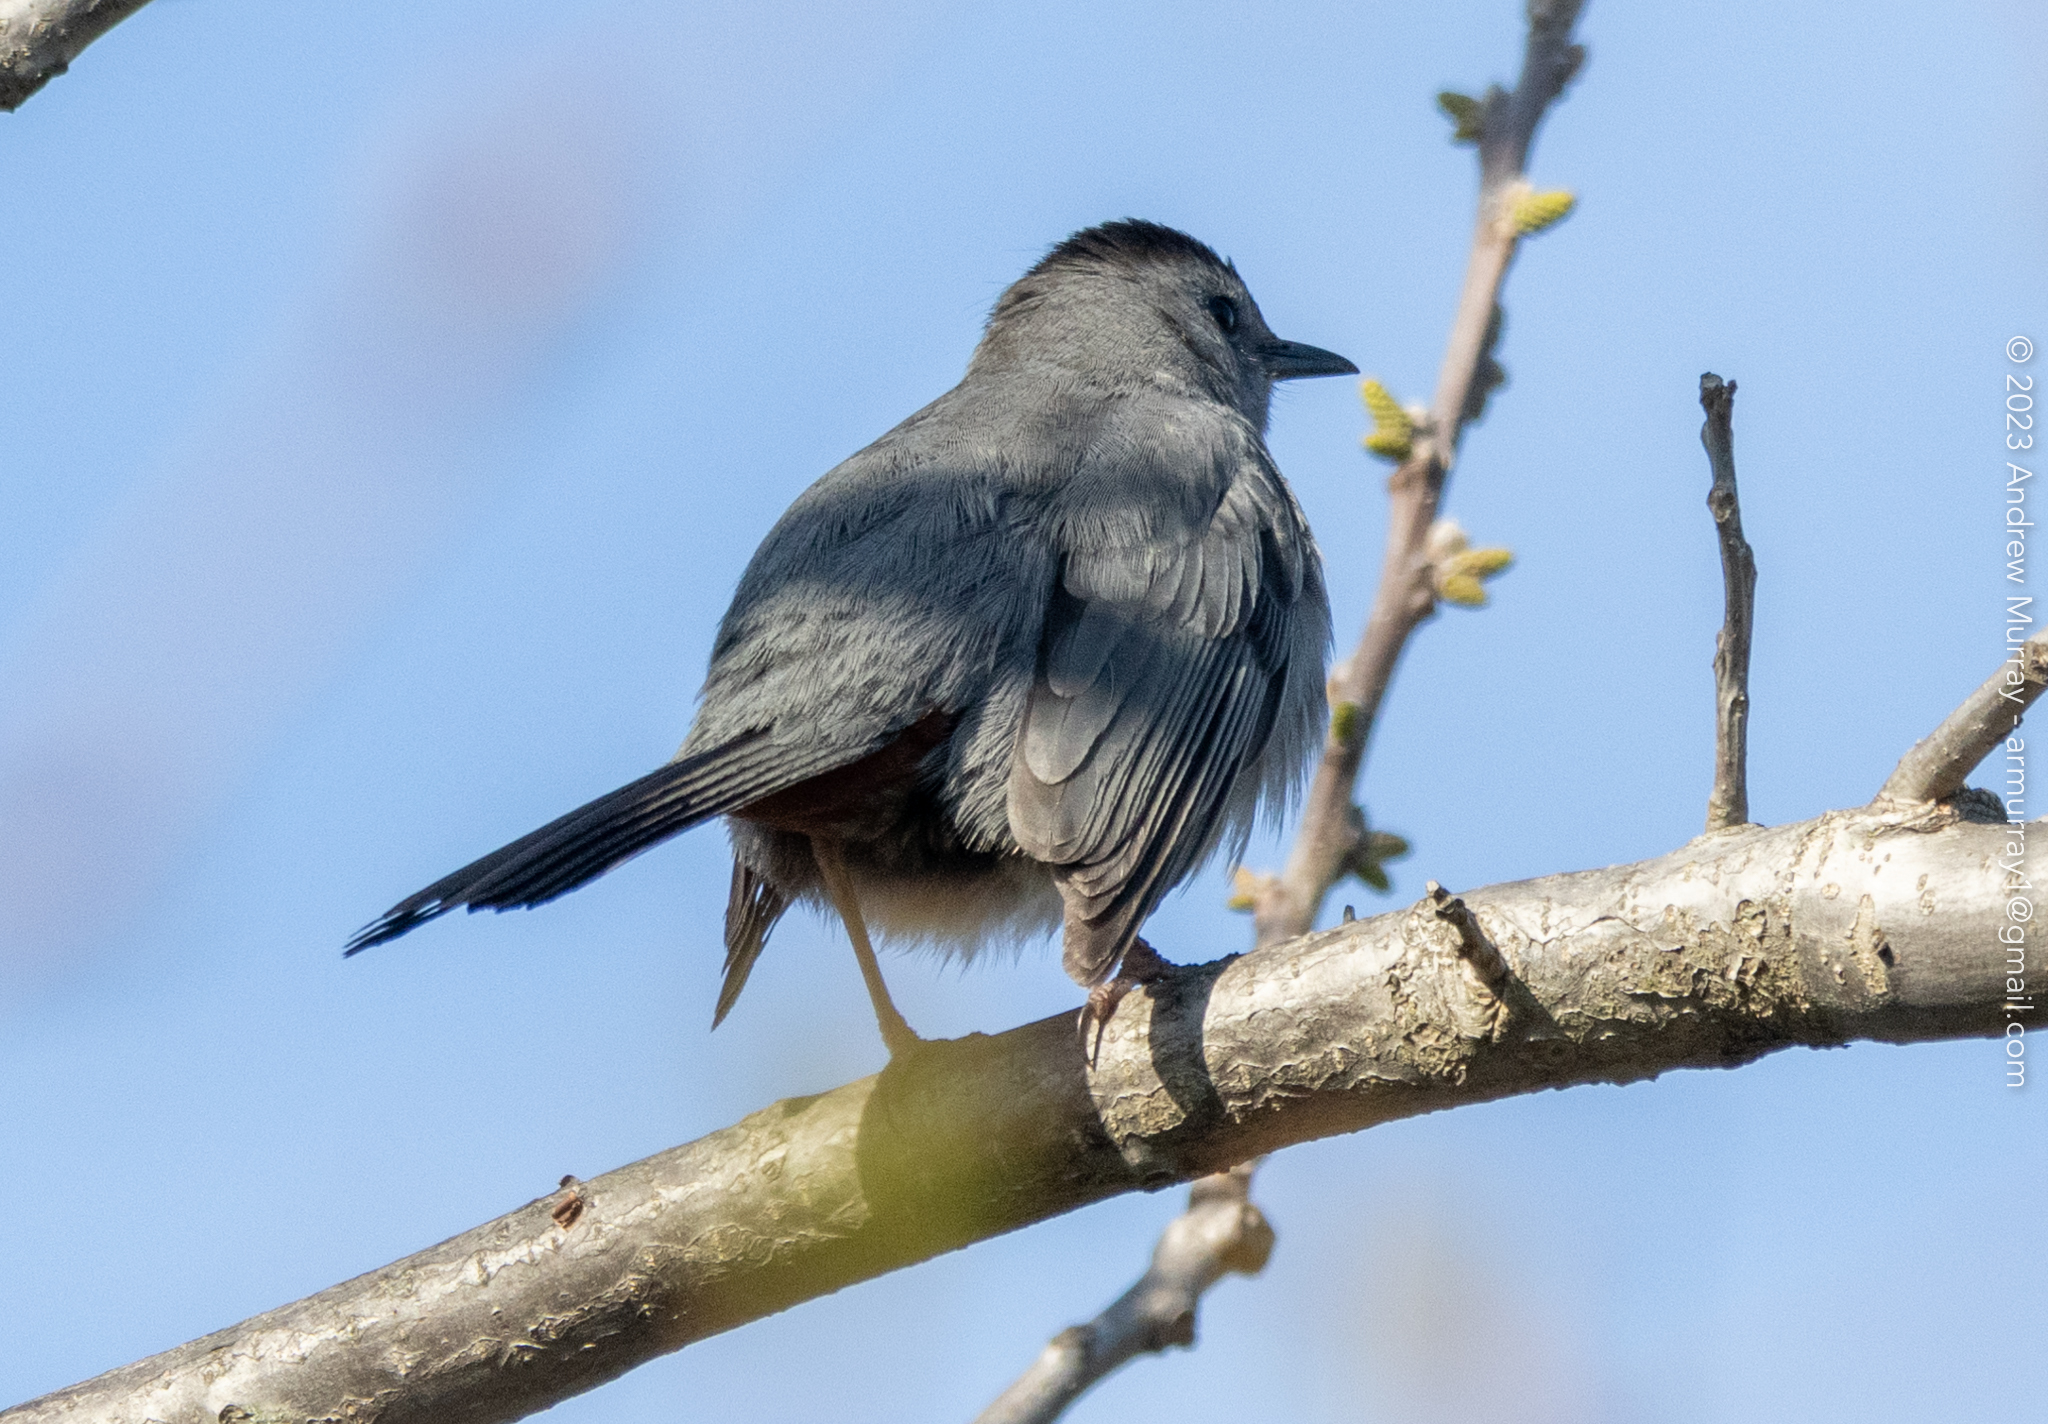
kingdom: Animalia
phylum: Chordata
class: Aves
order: Passeriformes
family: Mimidae
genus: Dumetella
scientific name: Dumetella carolinensis
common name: Gray catbird
